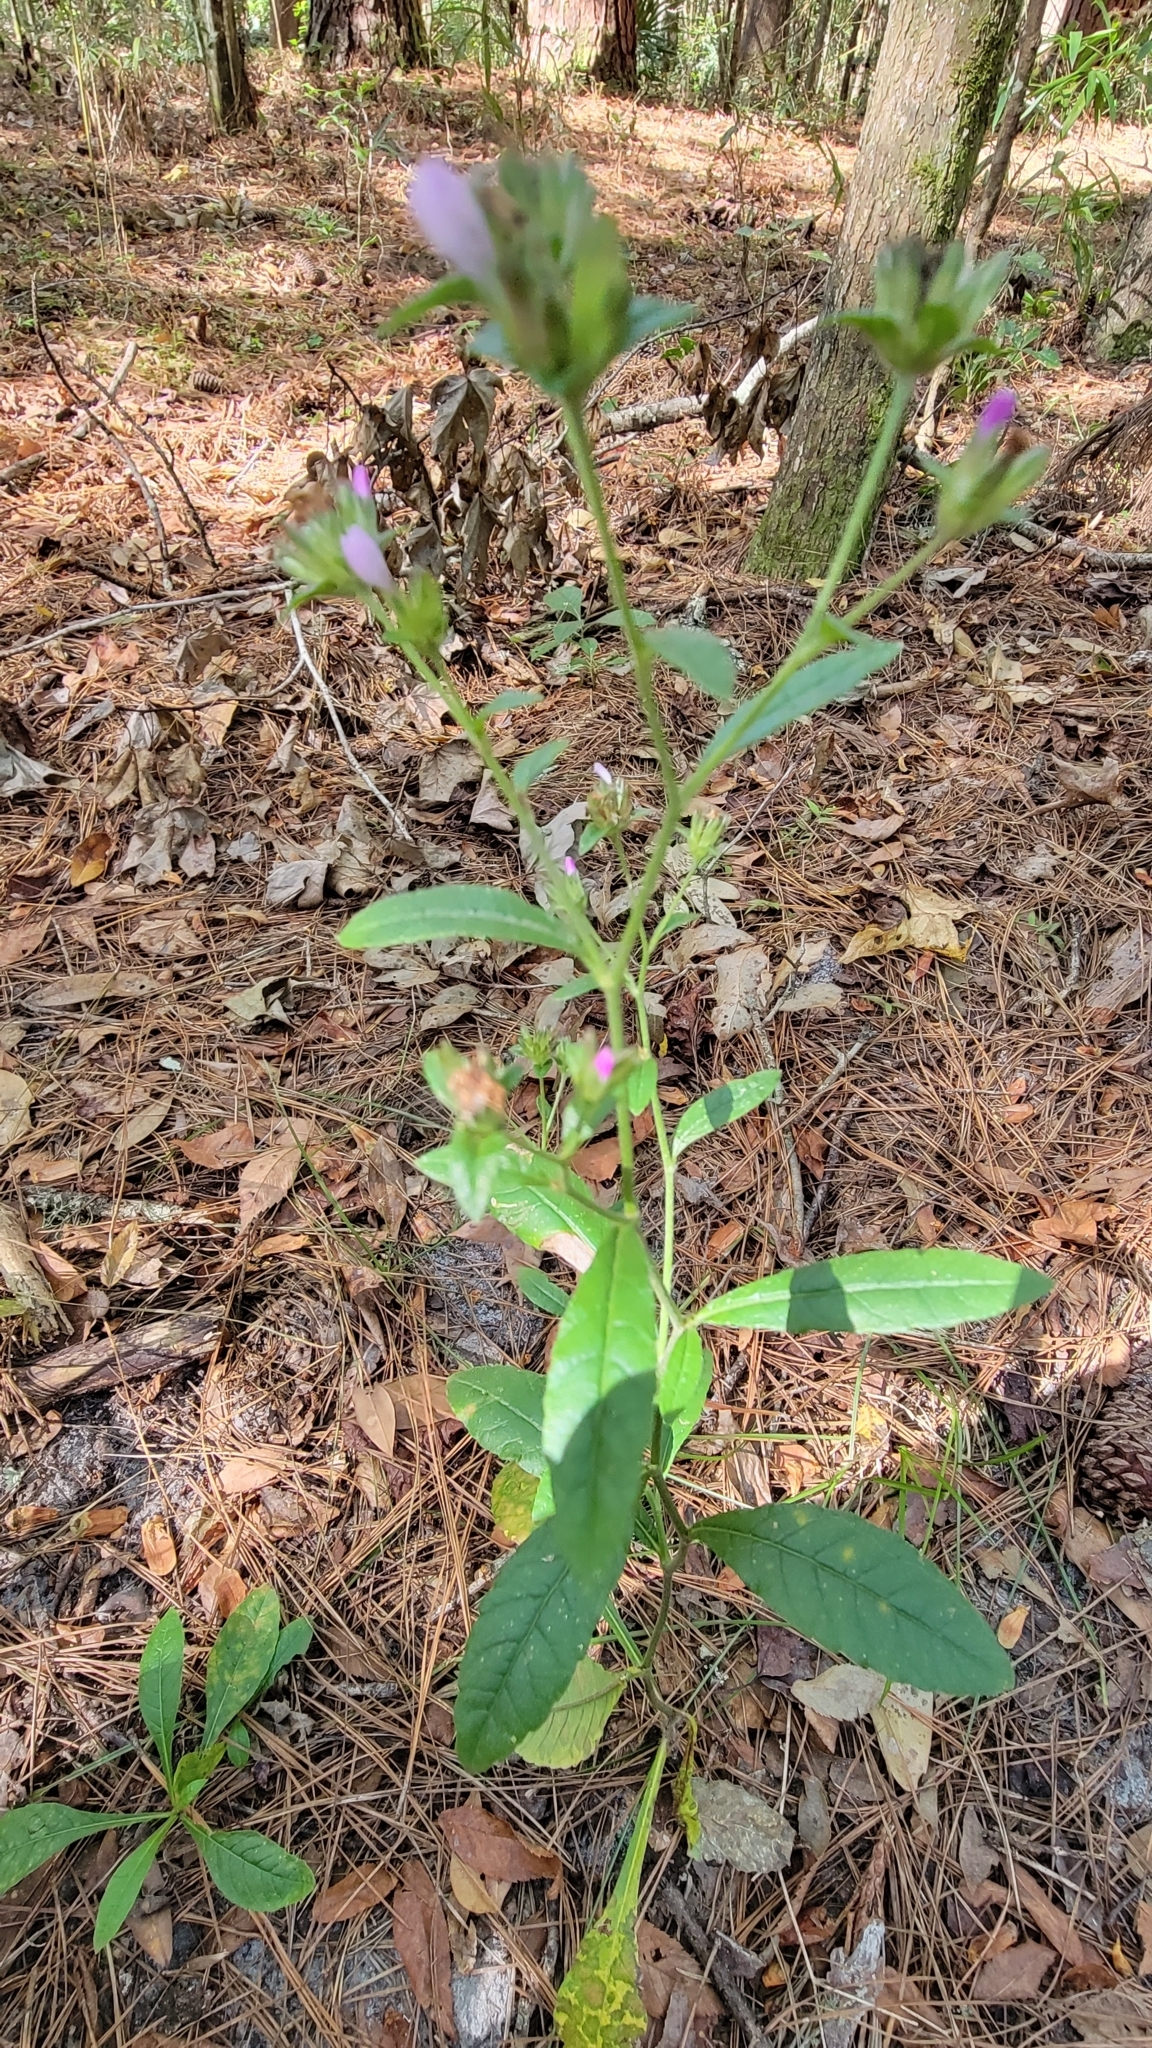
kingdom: Plantae
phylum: Tracheophyta
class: Magnoliopsida
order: Asterales
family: Asteraceae
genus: Elephantopus
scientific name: Elephantopus carolinianus
